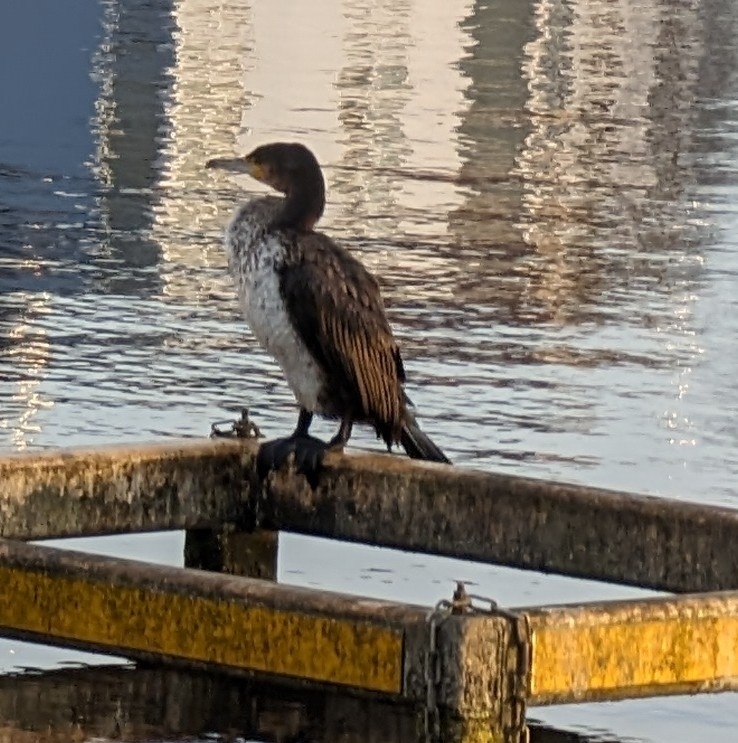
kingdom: Animalia
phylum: Chordata
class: Aves
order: Suliformes
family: Phalacrocoracidae
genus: Phalacrocorax
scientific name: Phalacrocorax carbo
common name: Great cormorant
